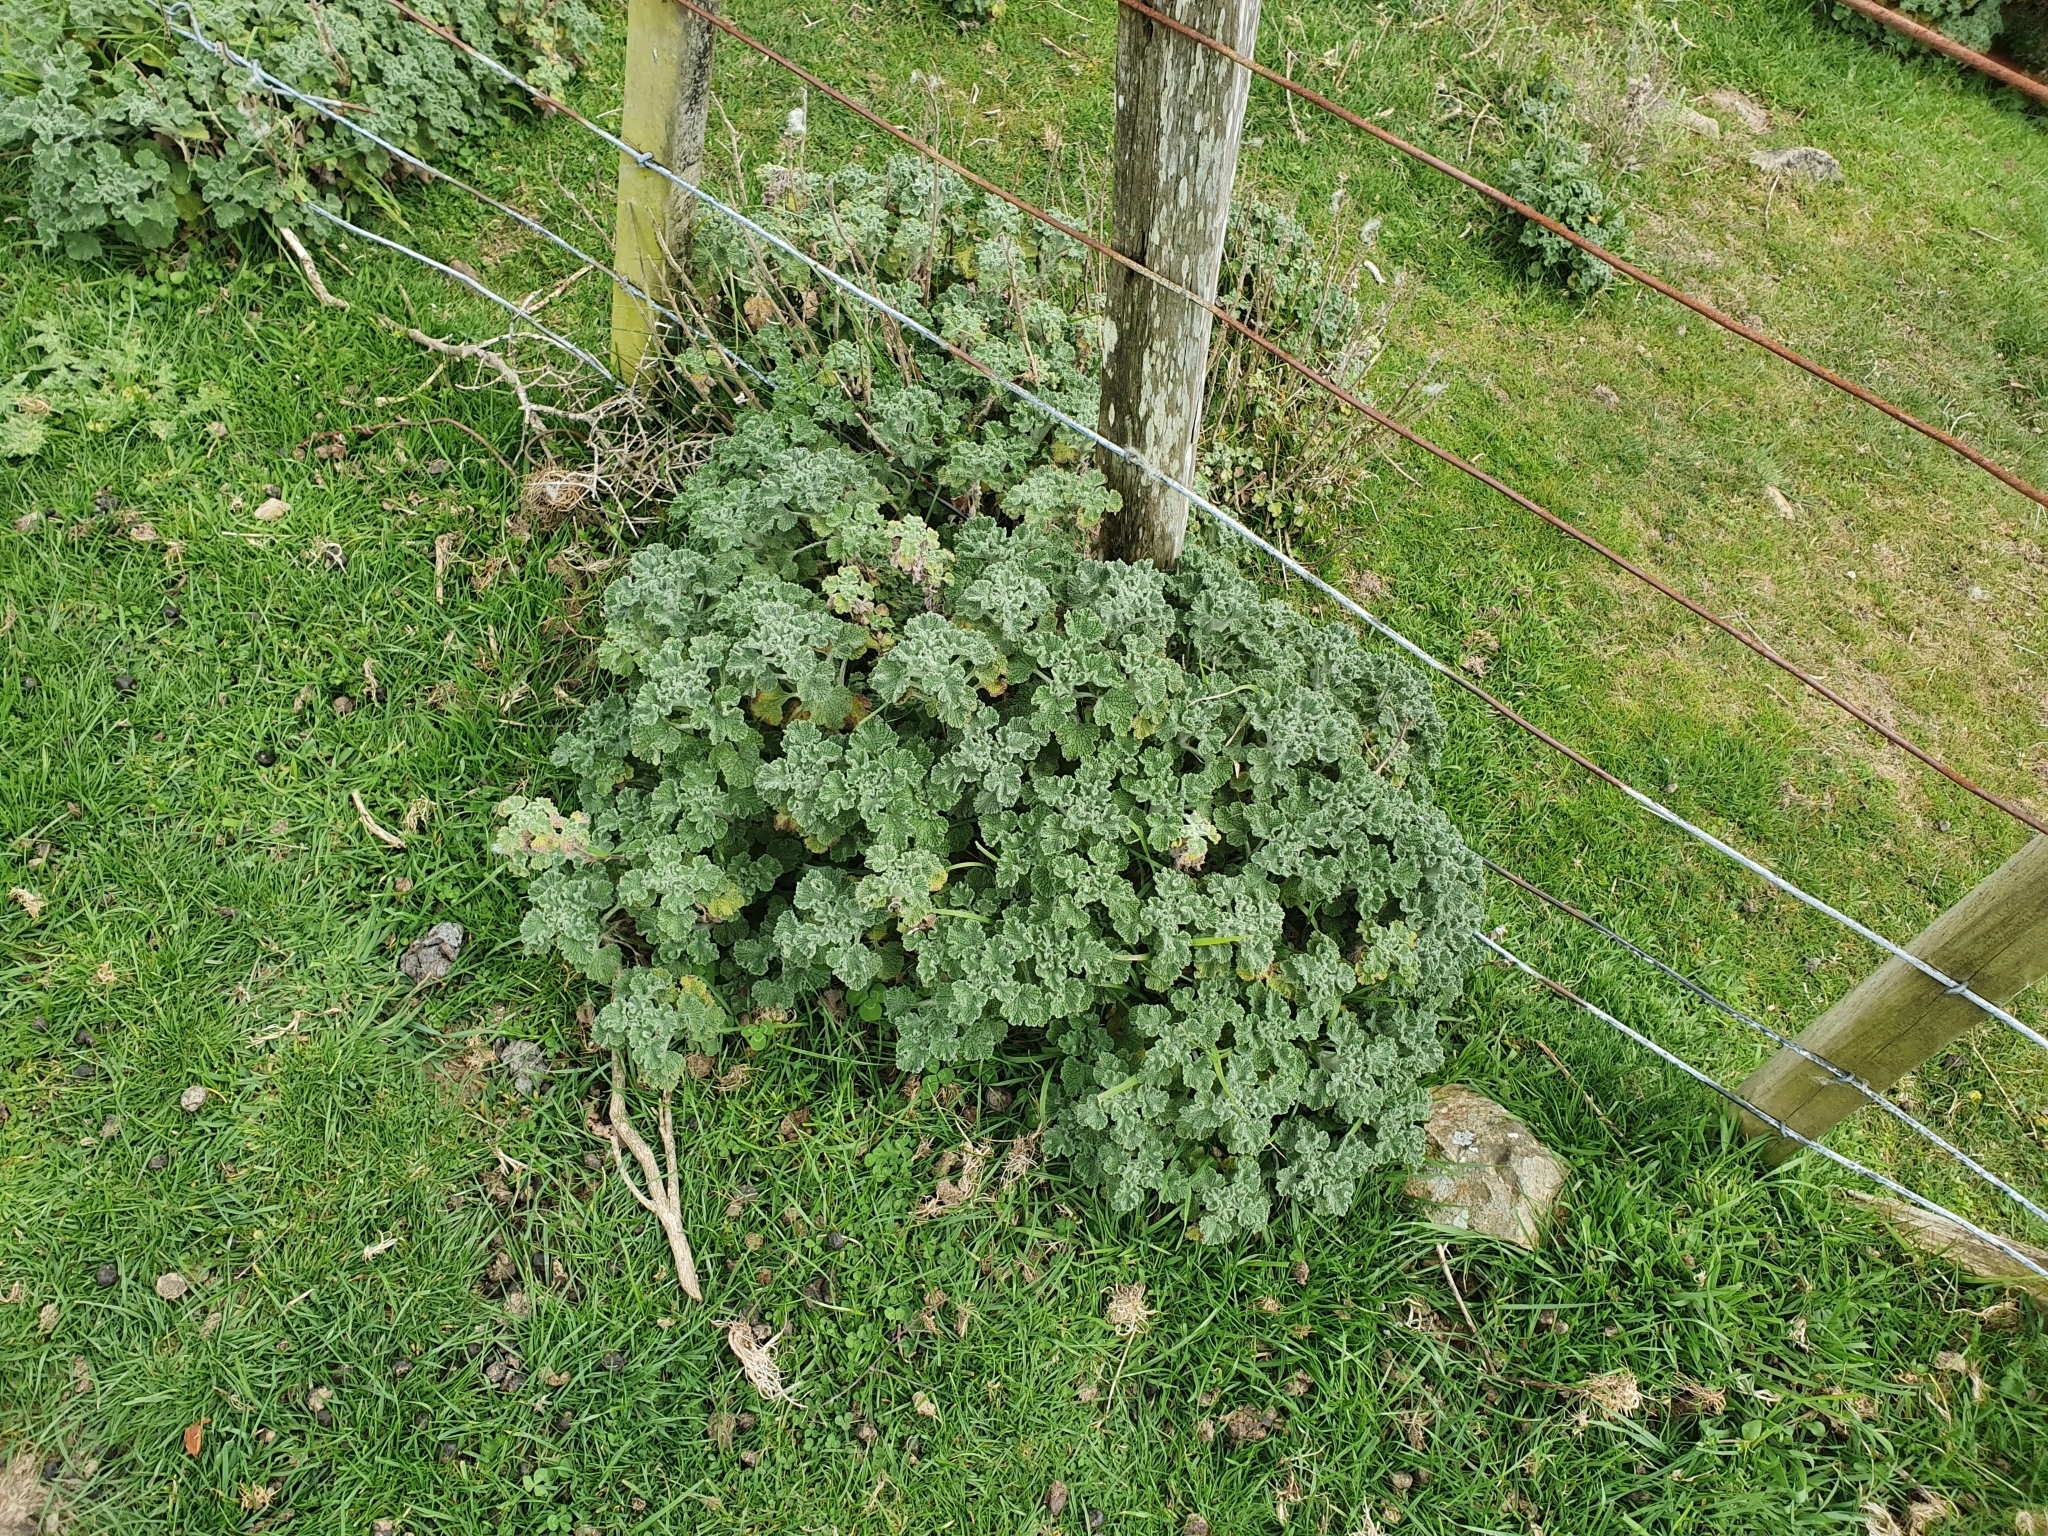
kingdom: Plantae
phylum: Tracheophyta
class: Magnoliopsida
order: Lamiales
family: Lamiaceae
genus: Marrubium
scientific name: Marrubium vulgare
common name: Horehound
